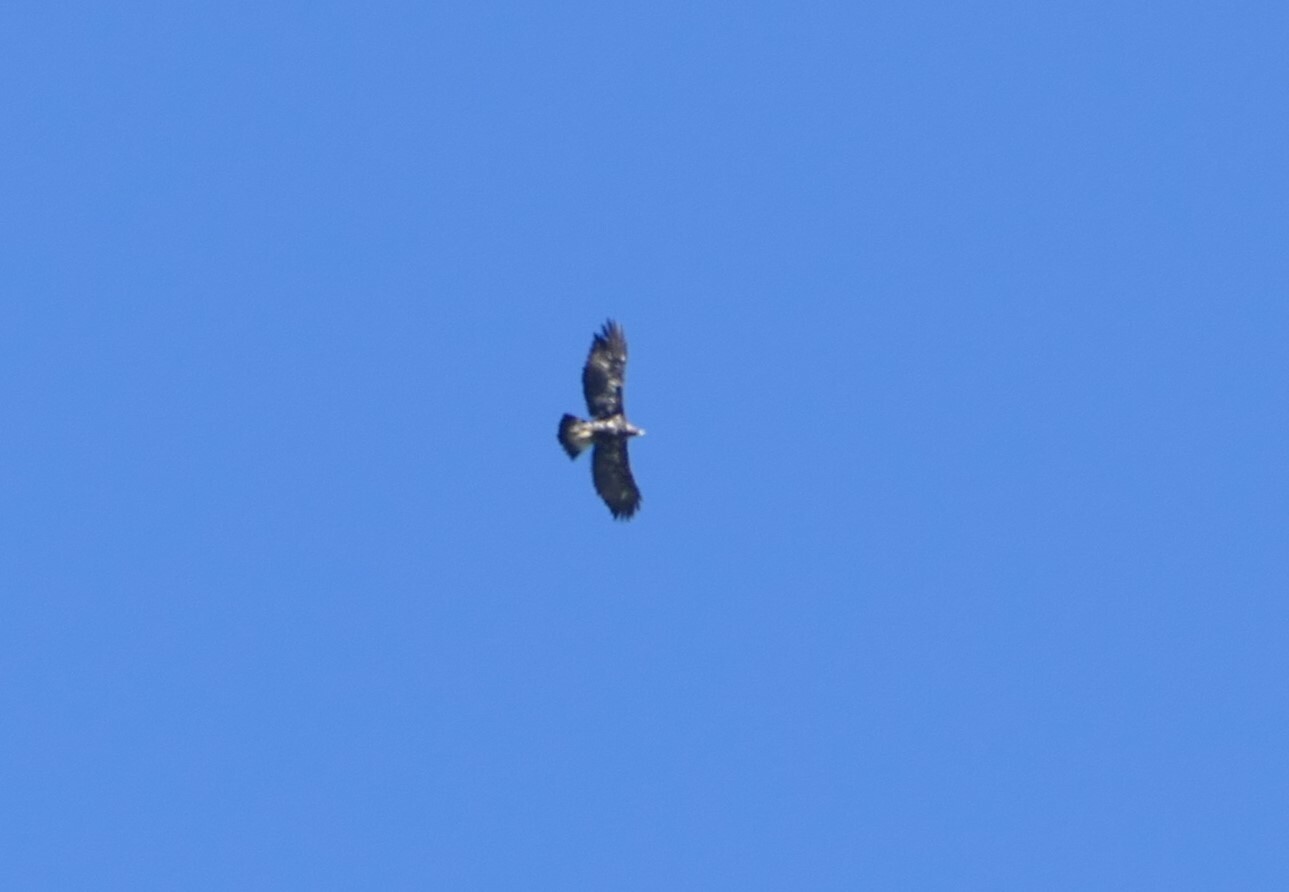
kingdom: Animalia
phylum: Chordata
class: Aves
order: Accipitriformes
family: Accipitridae
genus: Aquila
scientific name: Aquila chrysaetos
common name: Golden eagle
